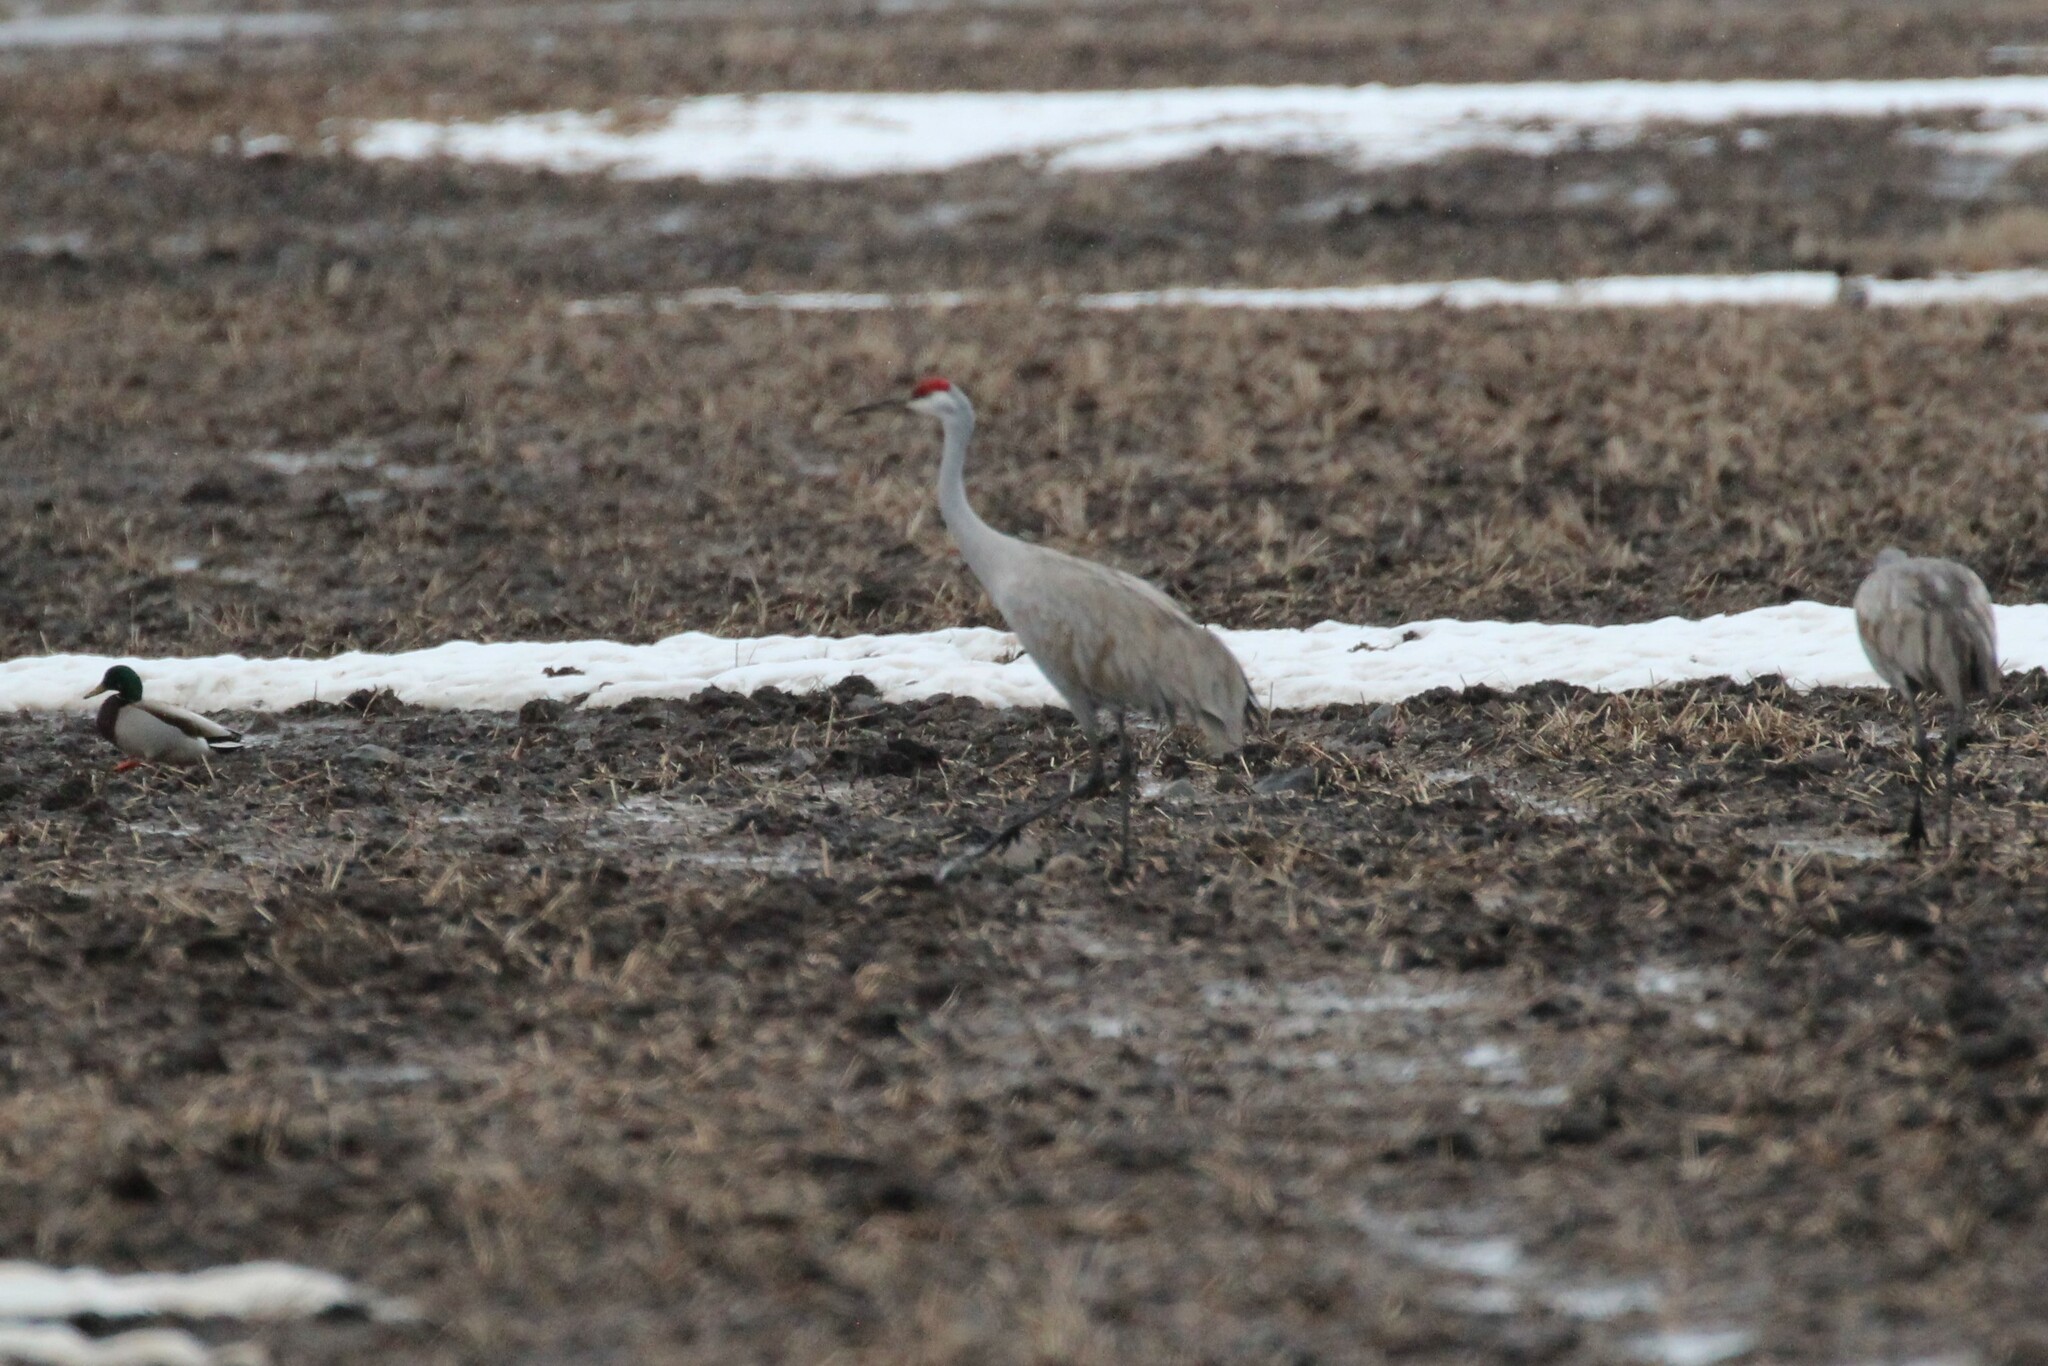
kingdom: Animalia
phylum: Chordata
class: Aves
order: Gruiformes
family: Gruidae
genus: Grus
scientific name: Grus canadensis
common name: Sandhill crane
